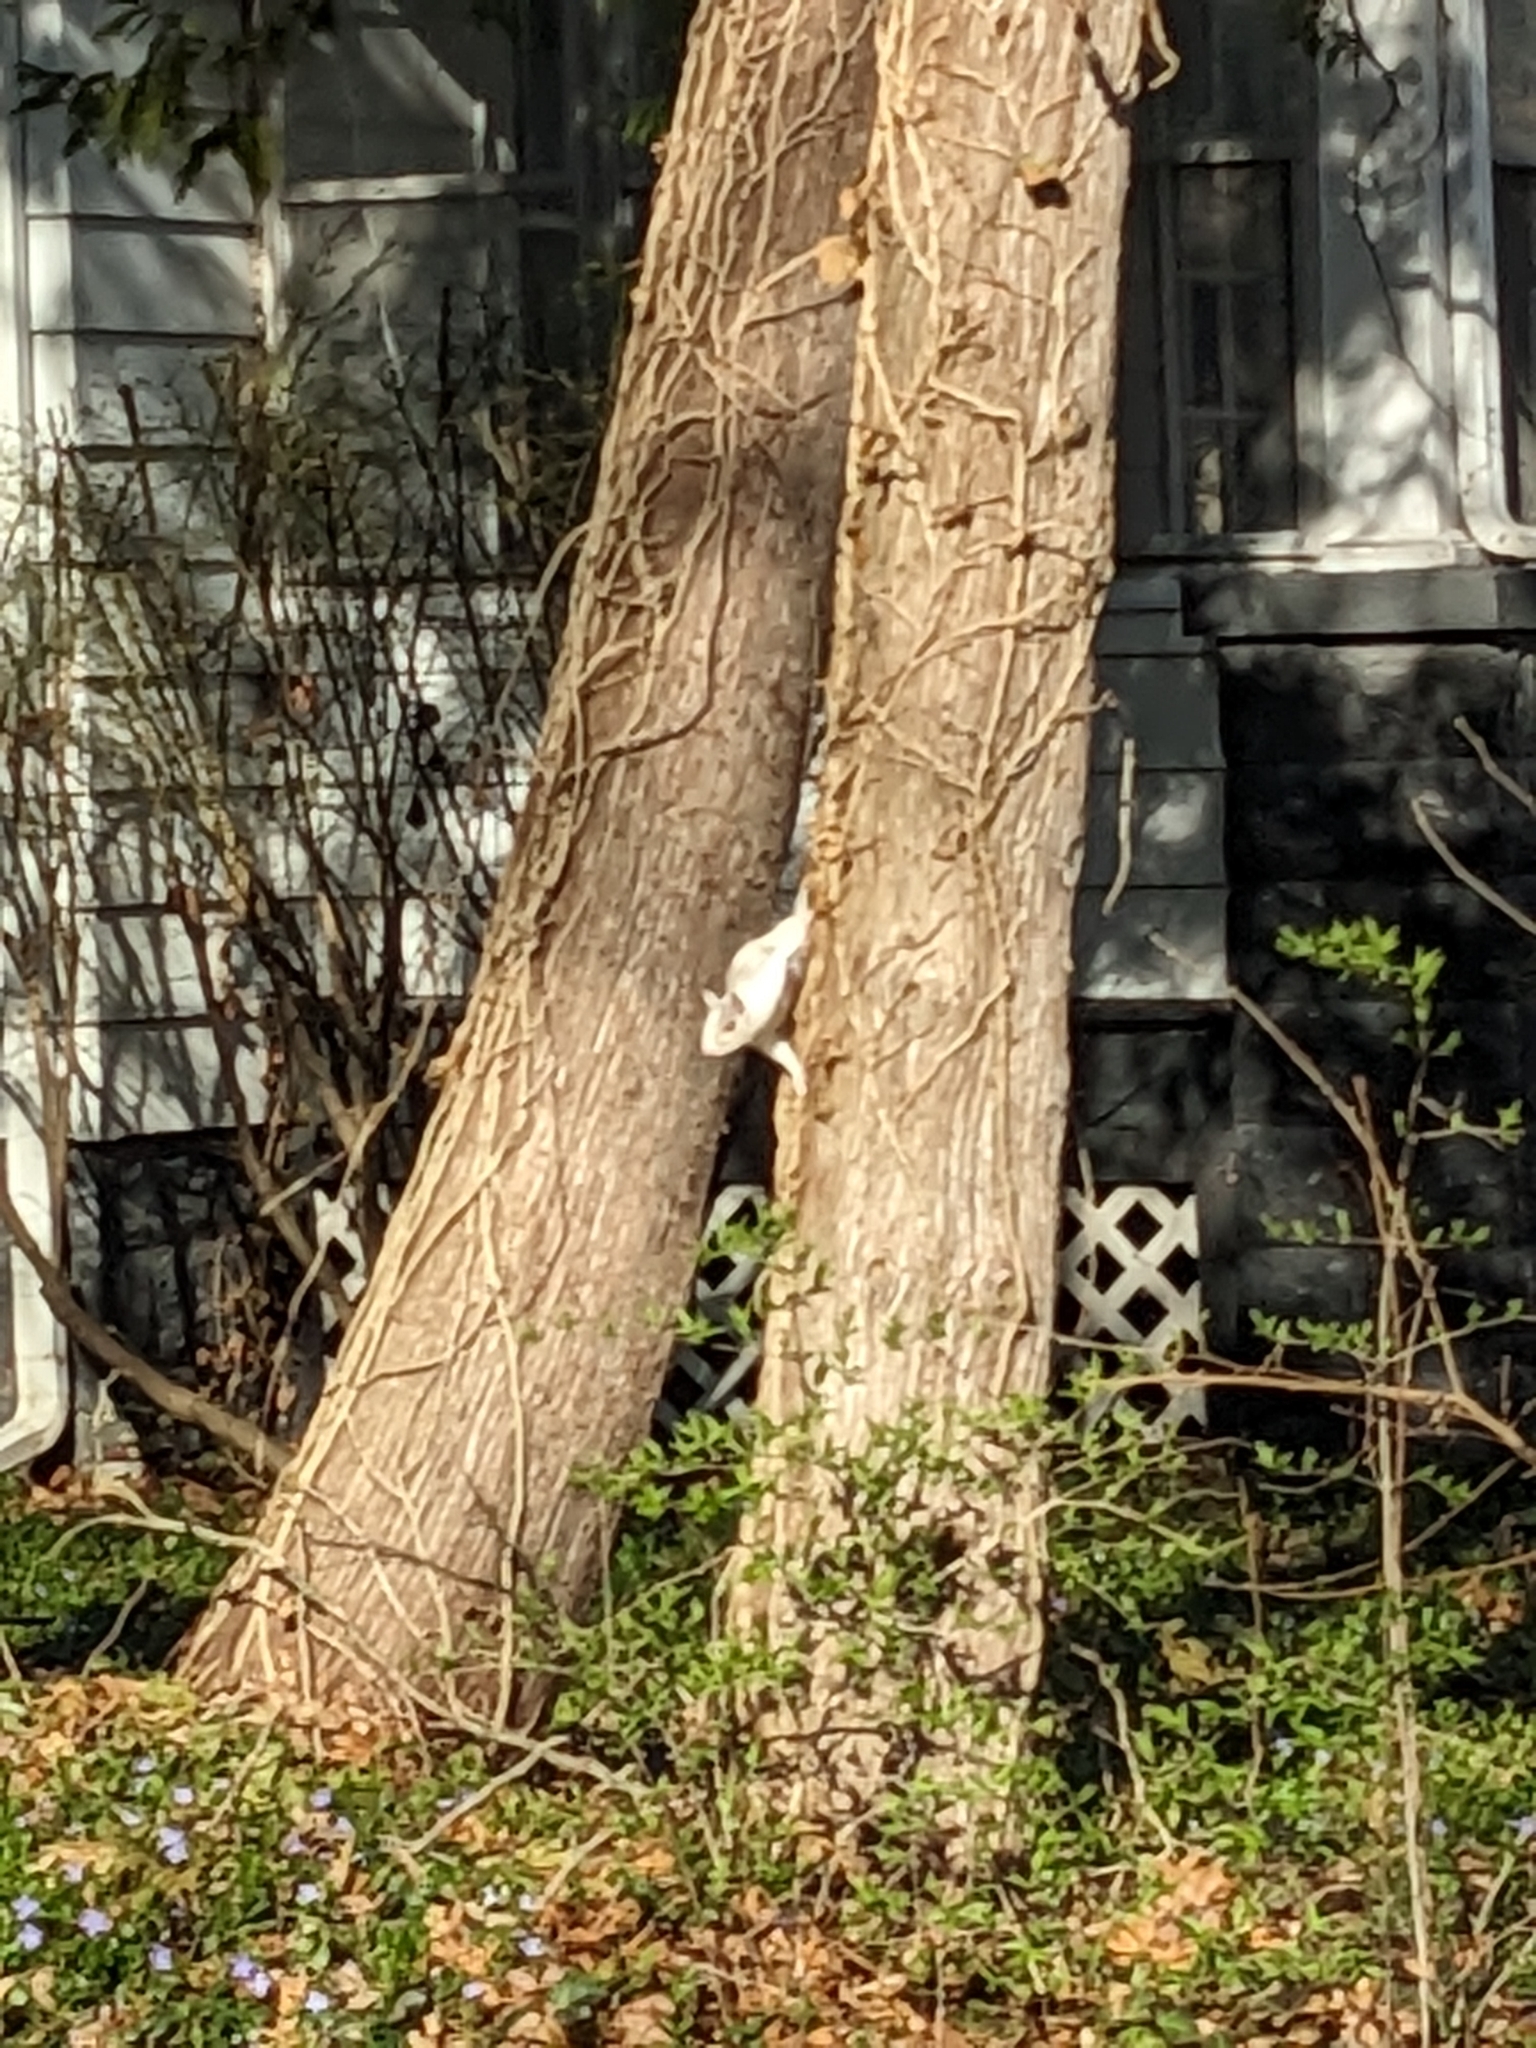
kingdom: Animalia
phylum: Chordata
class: Mammalia
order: Rodentia
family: Sciuridae
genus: Sciurus
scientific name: Sciurus carolinensis
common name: Eastern gray squirrel
